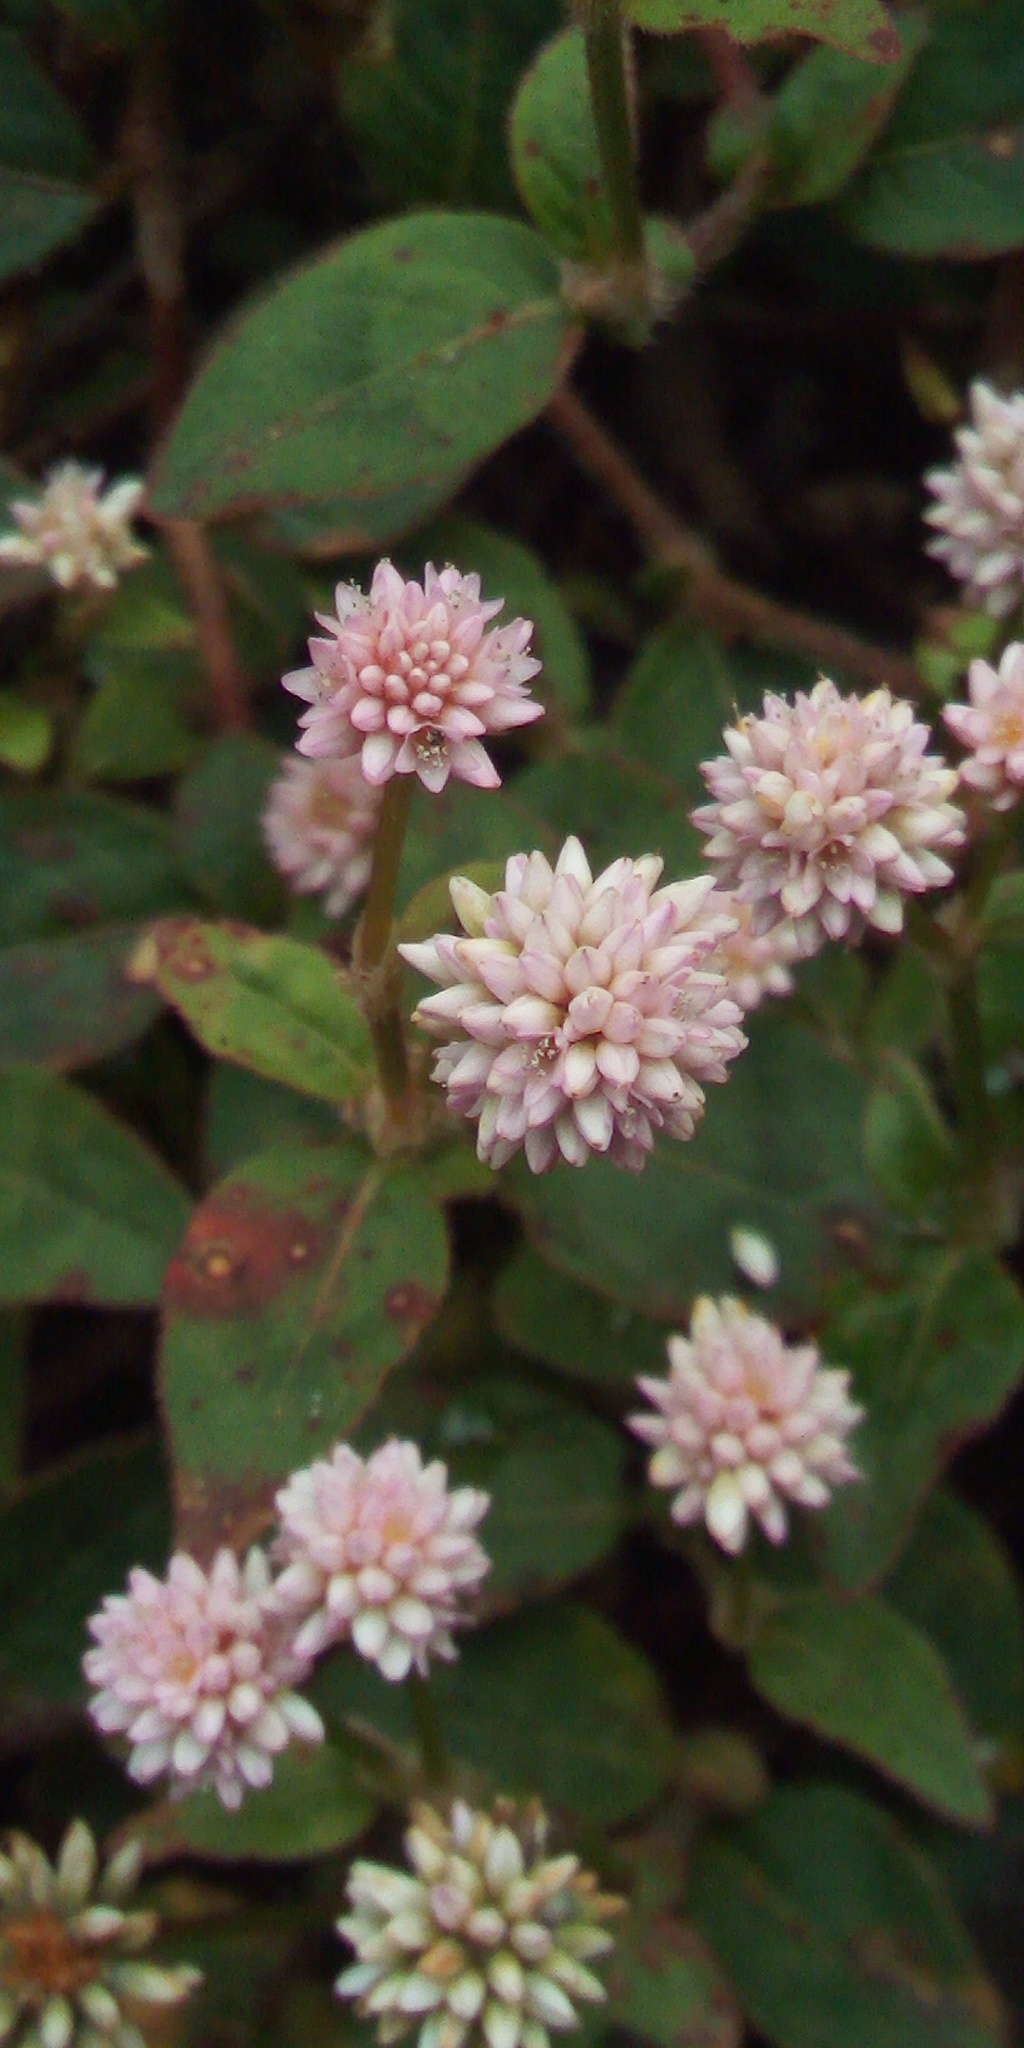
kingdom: Plantae
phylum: Tracheophyta
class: Magnoliopsida
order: Caryophyllales
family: Polygonaceae
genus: Persicaria
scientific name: Persicaria capitata
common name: Pinkhead smartweed
